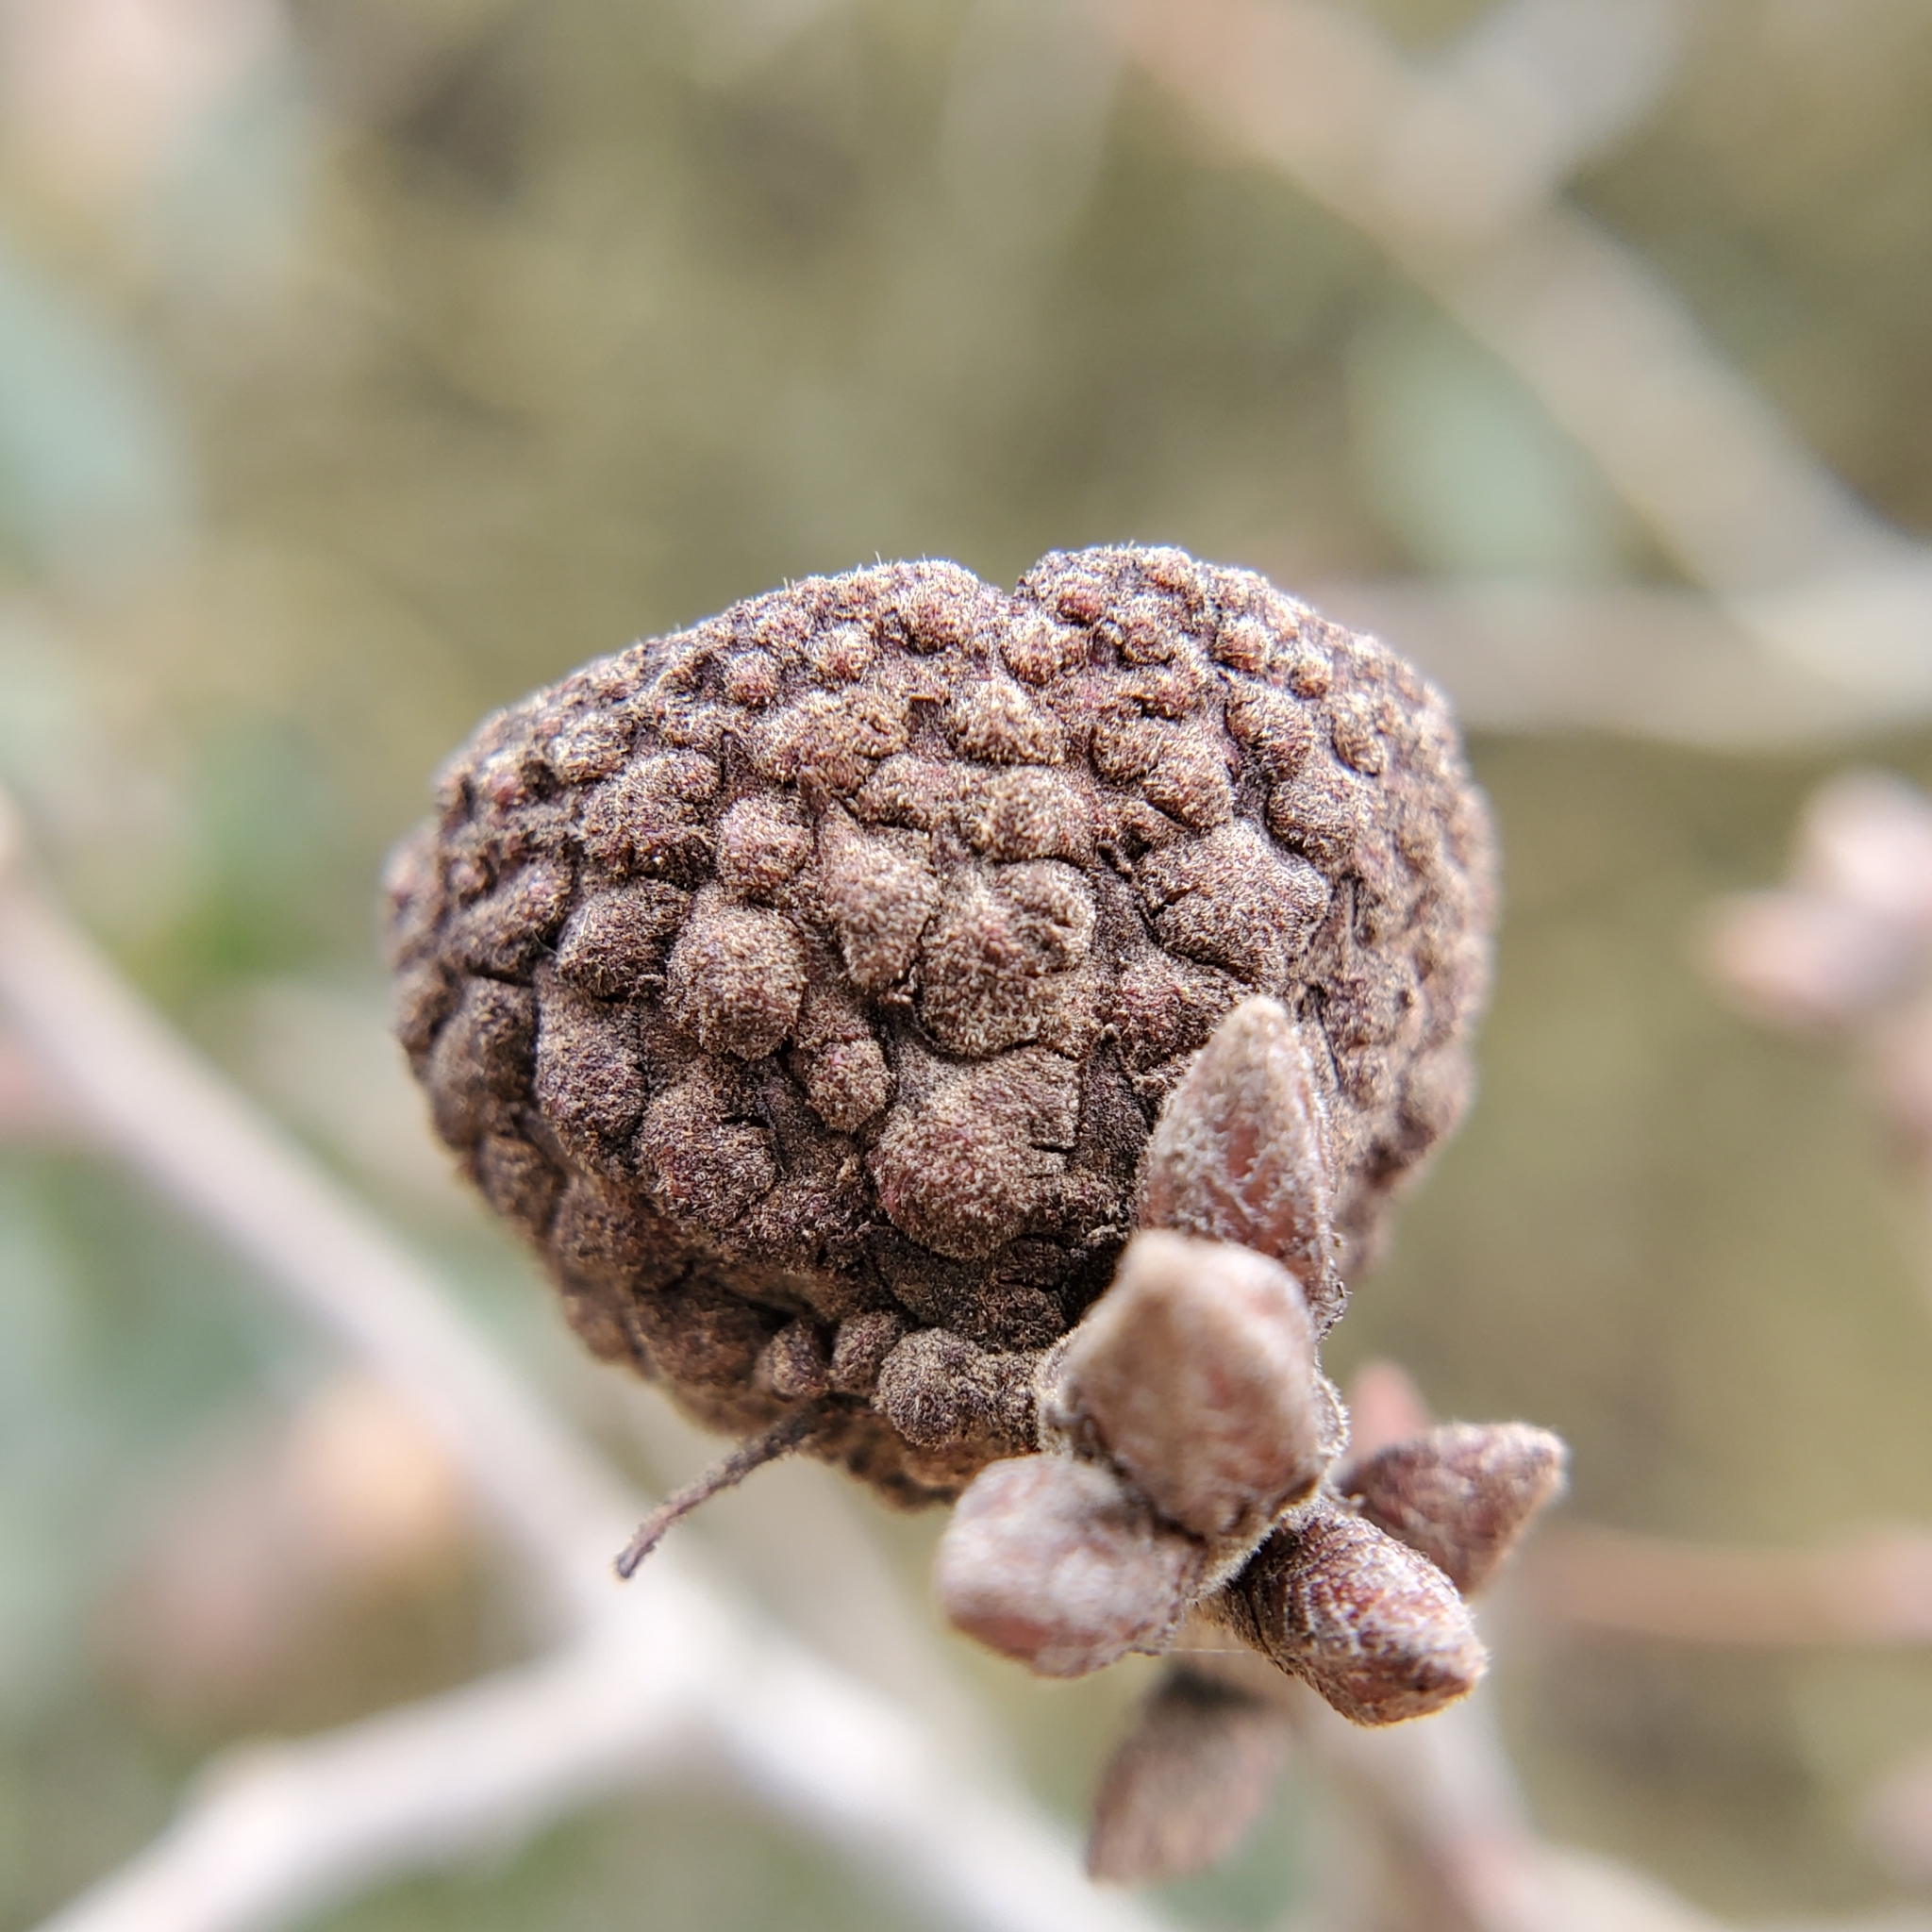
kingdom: Plantae
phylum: Tracheophyta
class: Magnoliopsida
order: Fagales
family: Fagaceae
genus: Quercus
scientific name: Quercus berberidifolia
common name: California scrub oak
